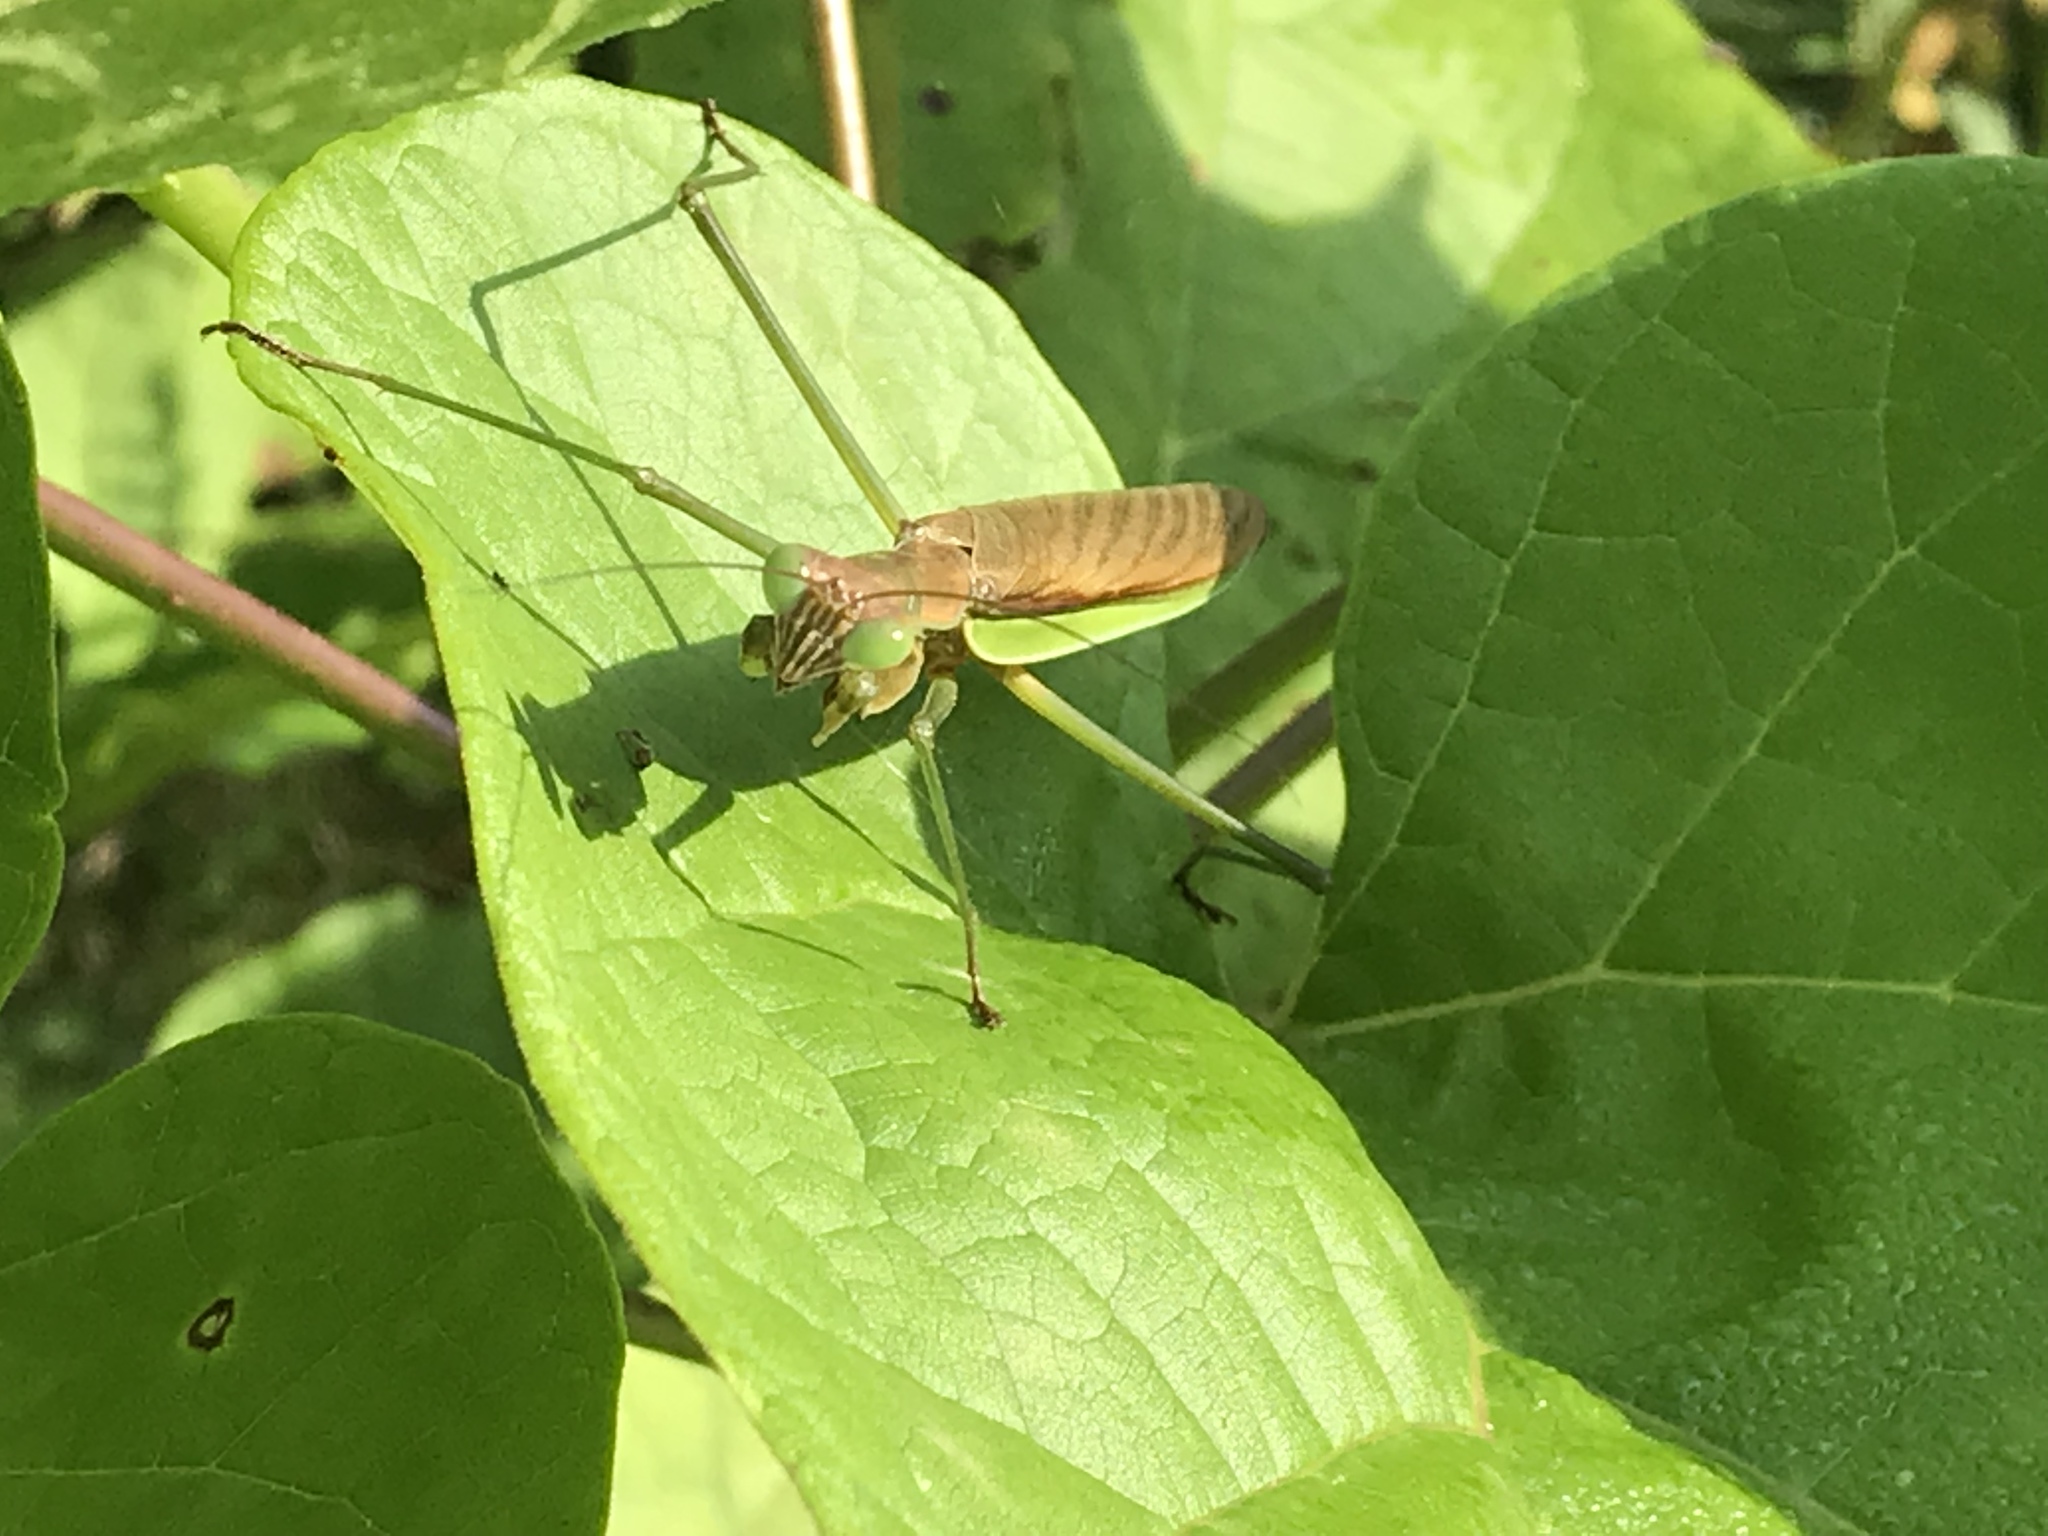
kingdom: Animalia
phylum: Arthropoda
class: Insecta
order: Mantodea
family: Mantidae
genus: Tenodera
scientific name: Tenodera sinensis
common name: Chinese mantis
